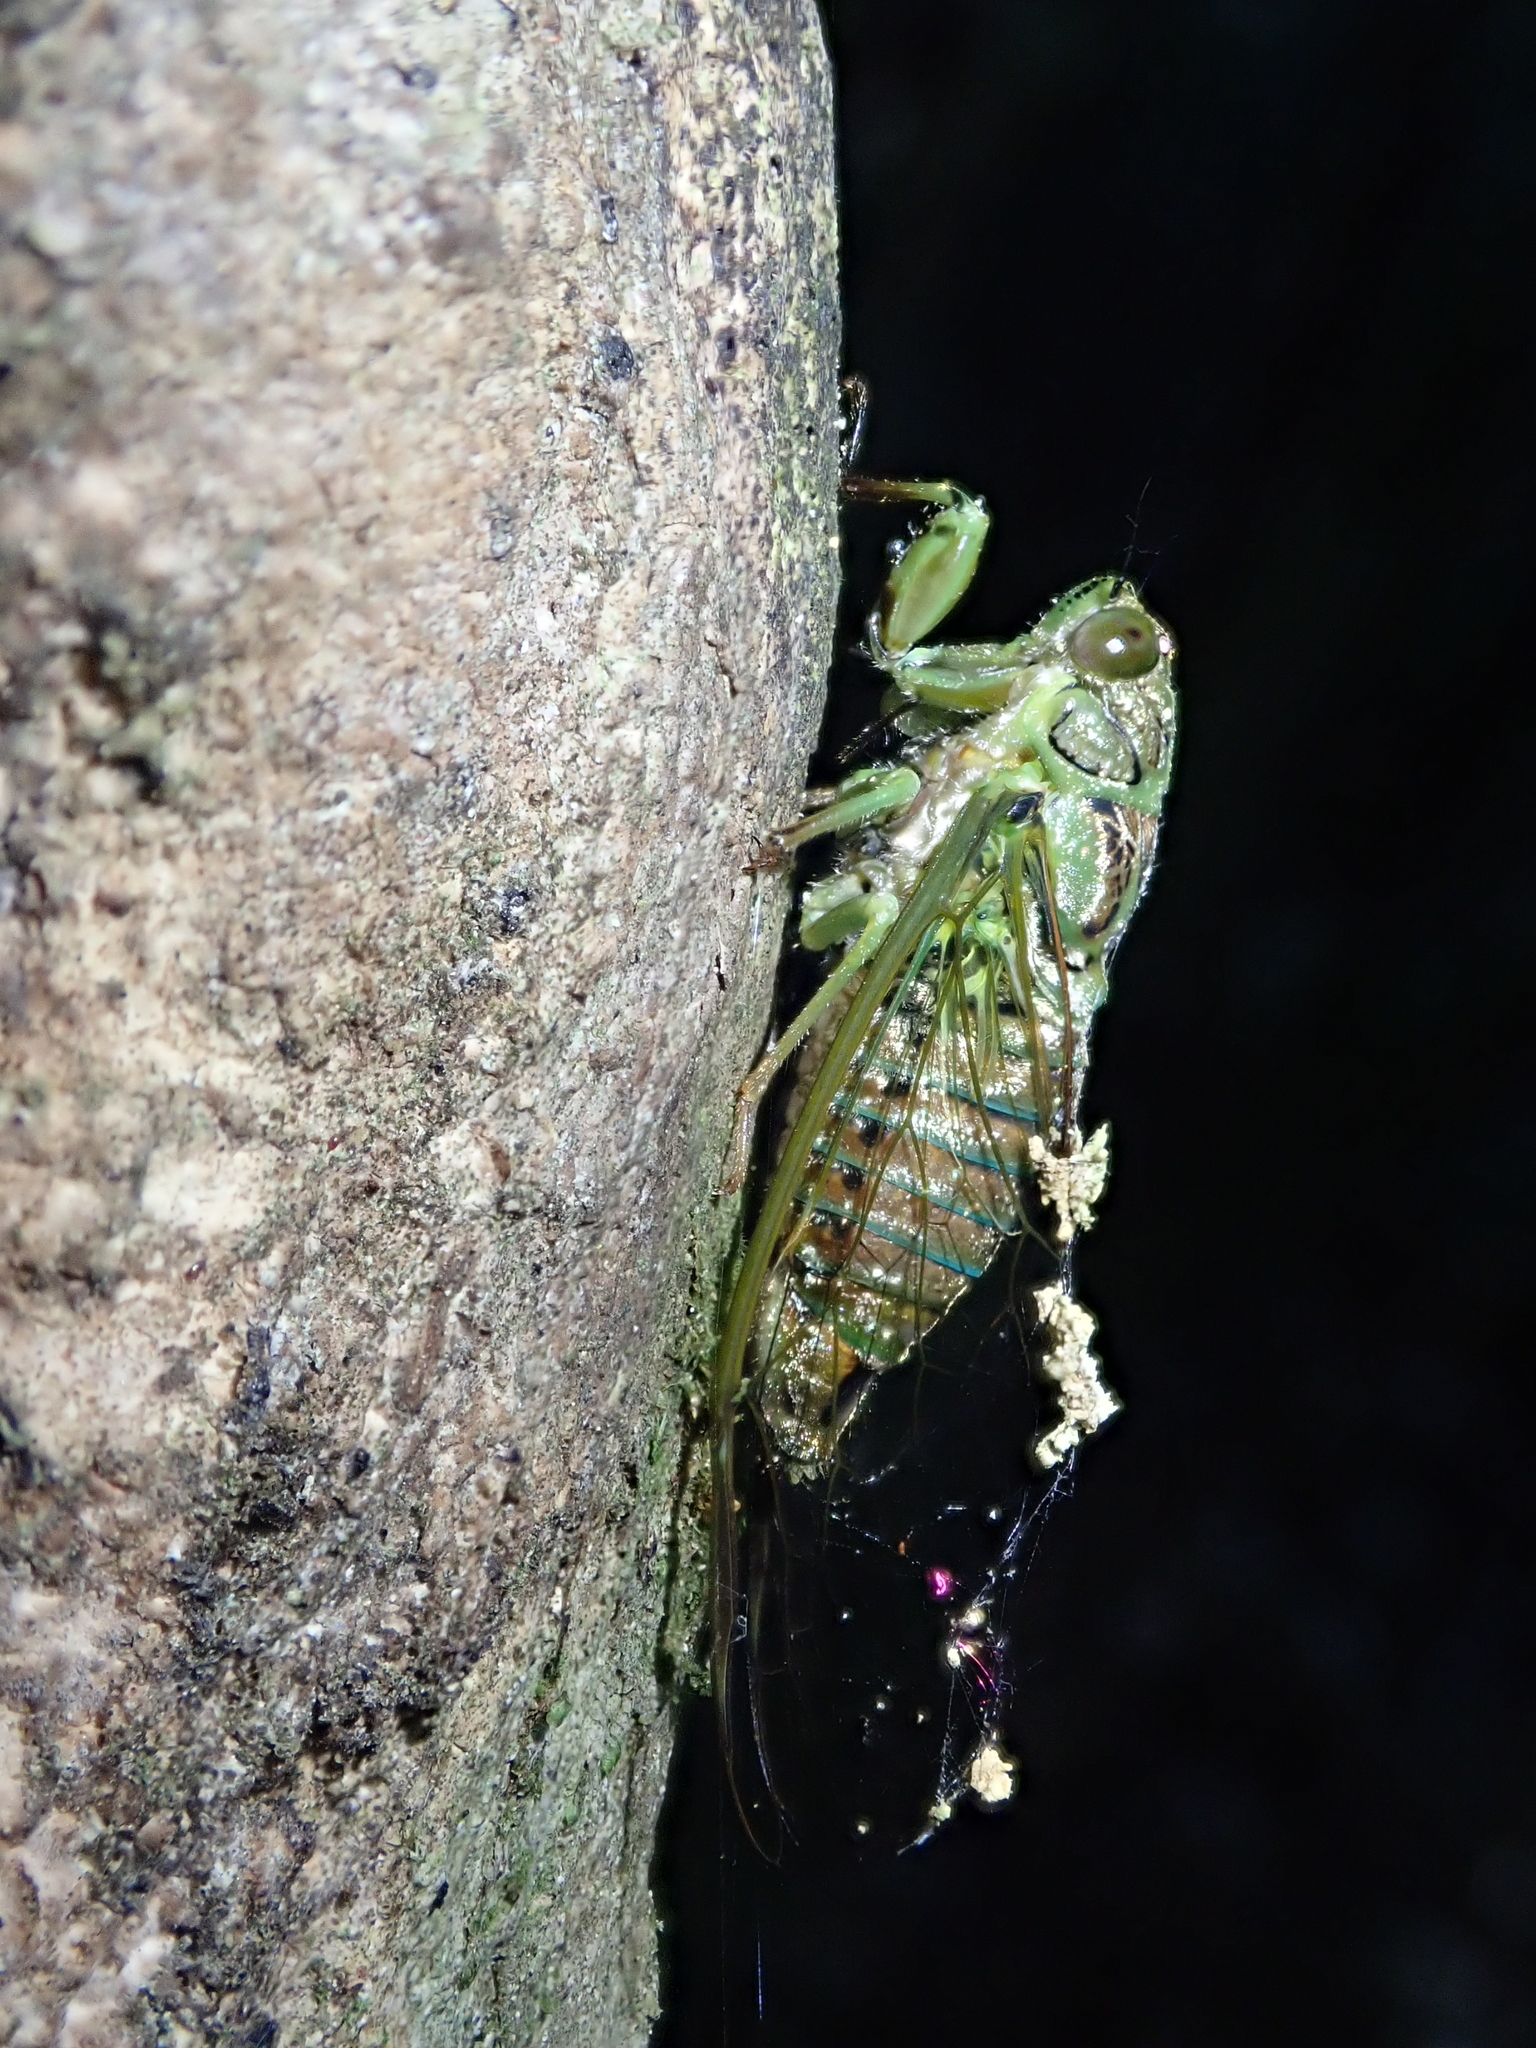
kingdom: Animalia
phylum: Arthropoda
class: Insecta
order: Hemiptera
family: Cicadidae
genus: Kikihia
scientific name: Kikihia scutellaris
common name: Lesser bronze cicada
